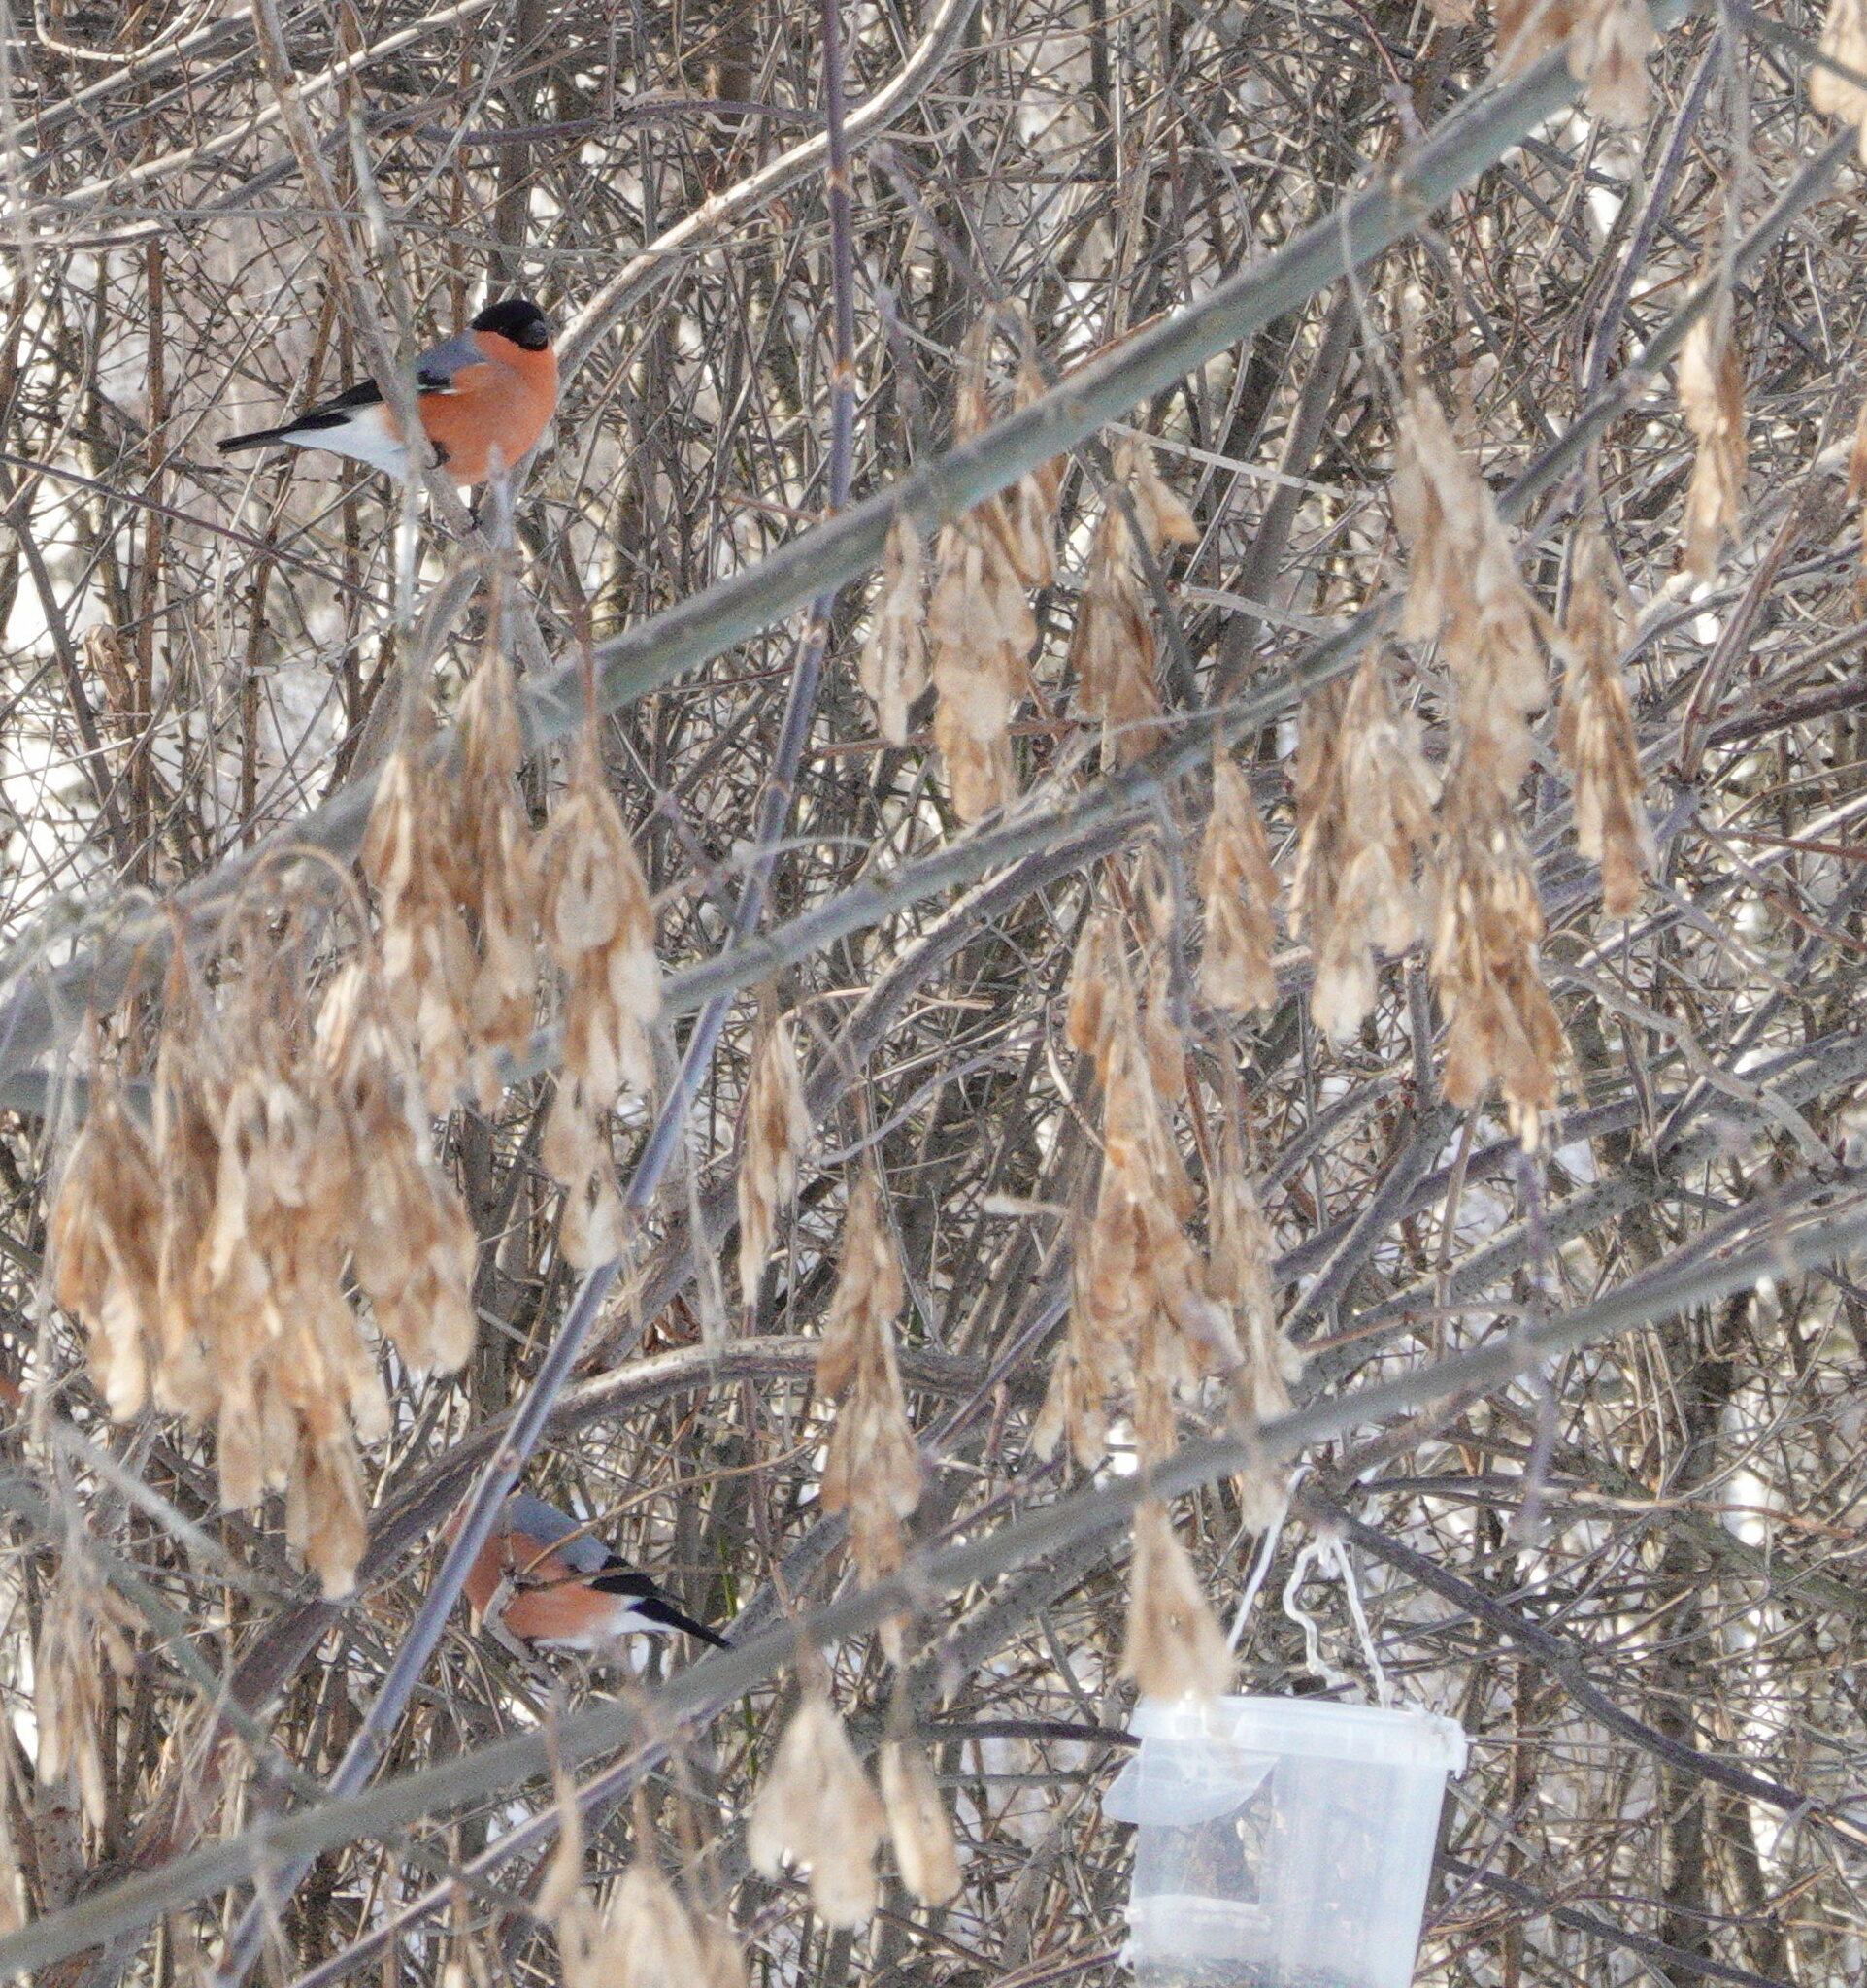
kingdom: Animalia
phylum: Chordata
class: Aves
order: Passeriformes
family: Fringillidae
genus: Pyrrhula
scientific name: Pyrrhula pyrrhula
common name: Eurasian bullfinch
